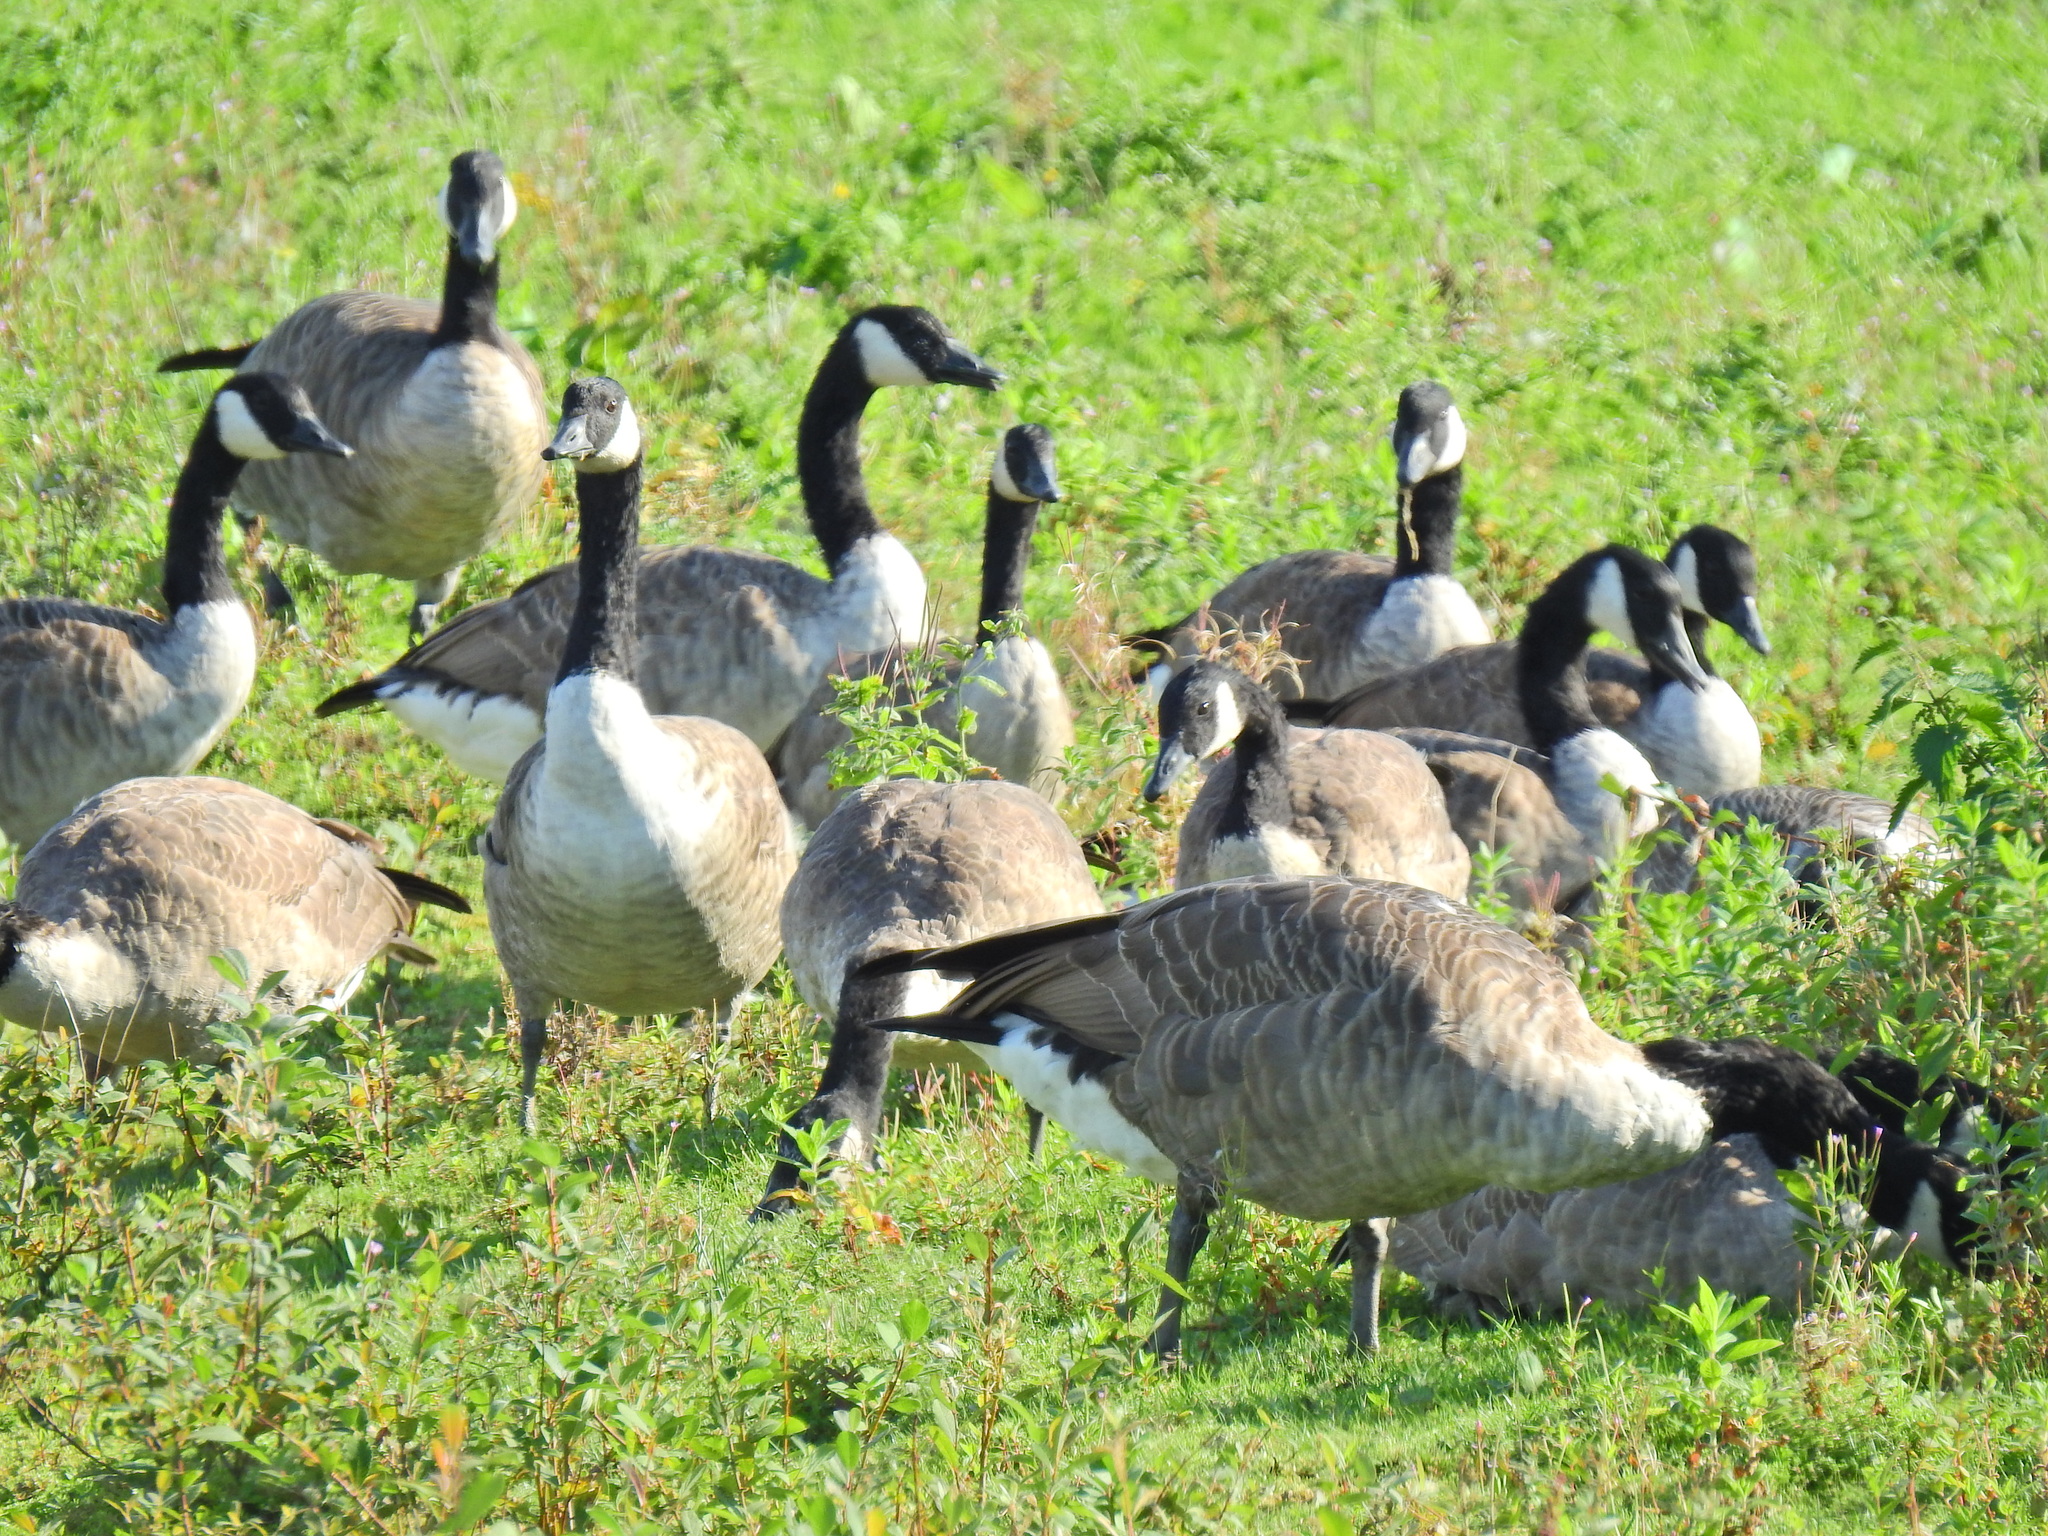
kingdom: Animalia
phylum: Chordata
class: Aves
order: Anseriformes
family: Anatidae
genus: Branta
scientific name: Branta canadensis
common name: Canada goose
